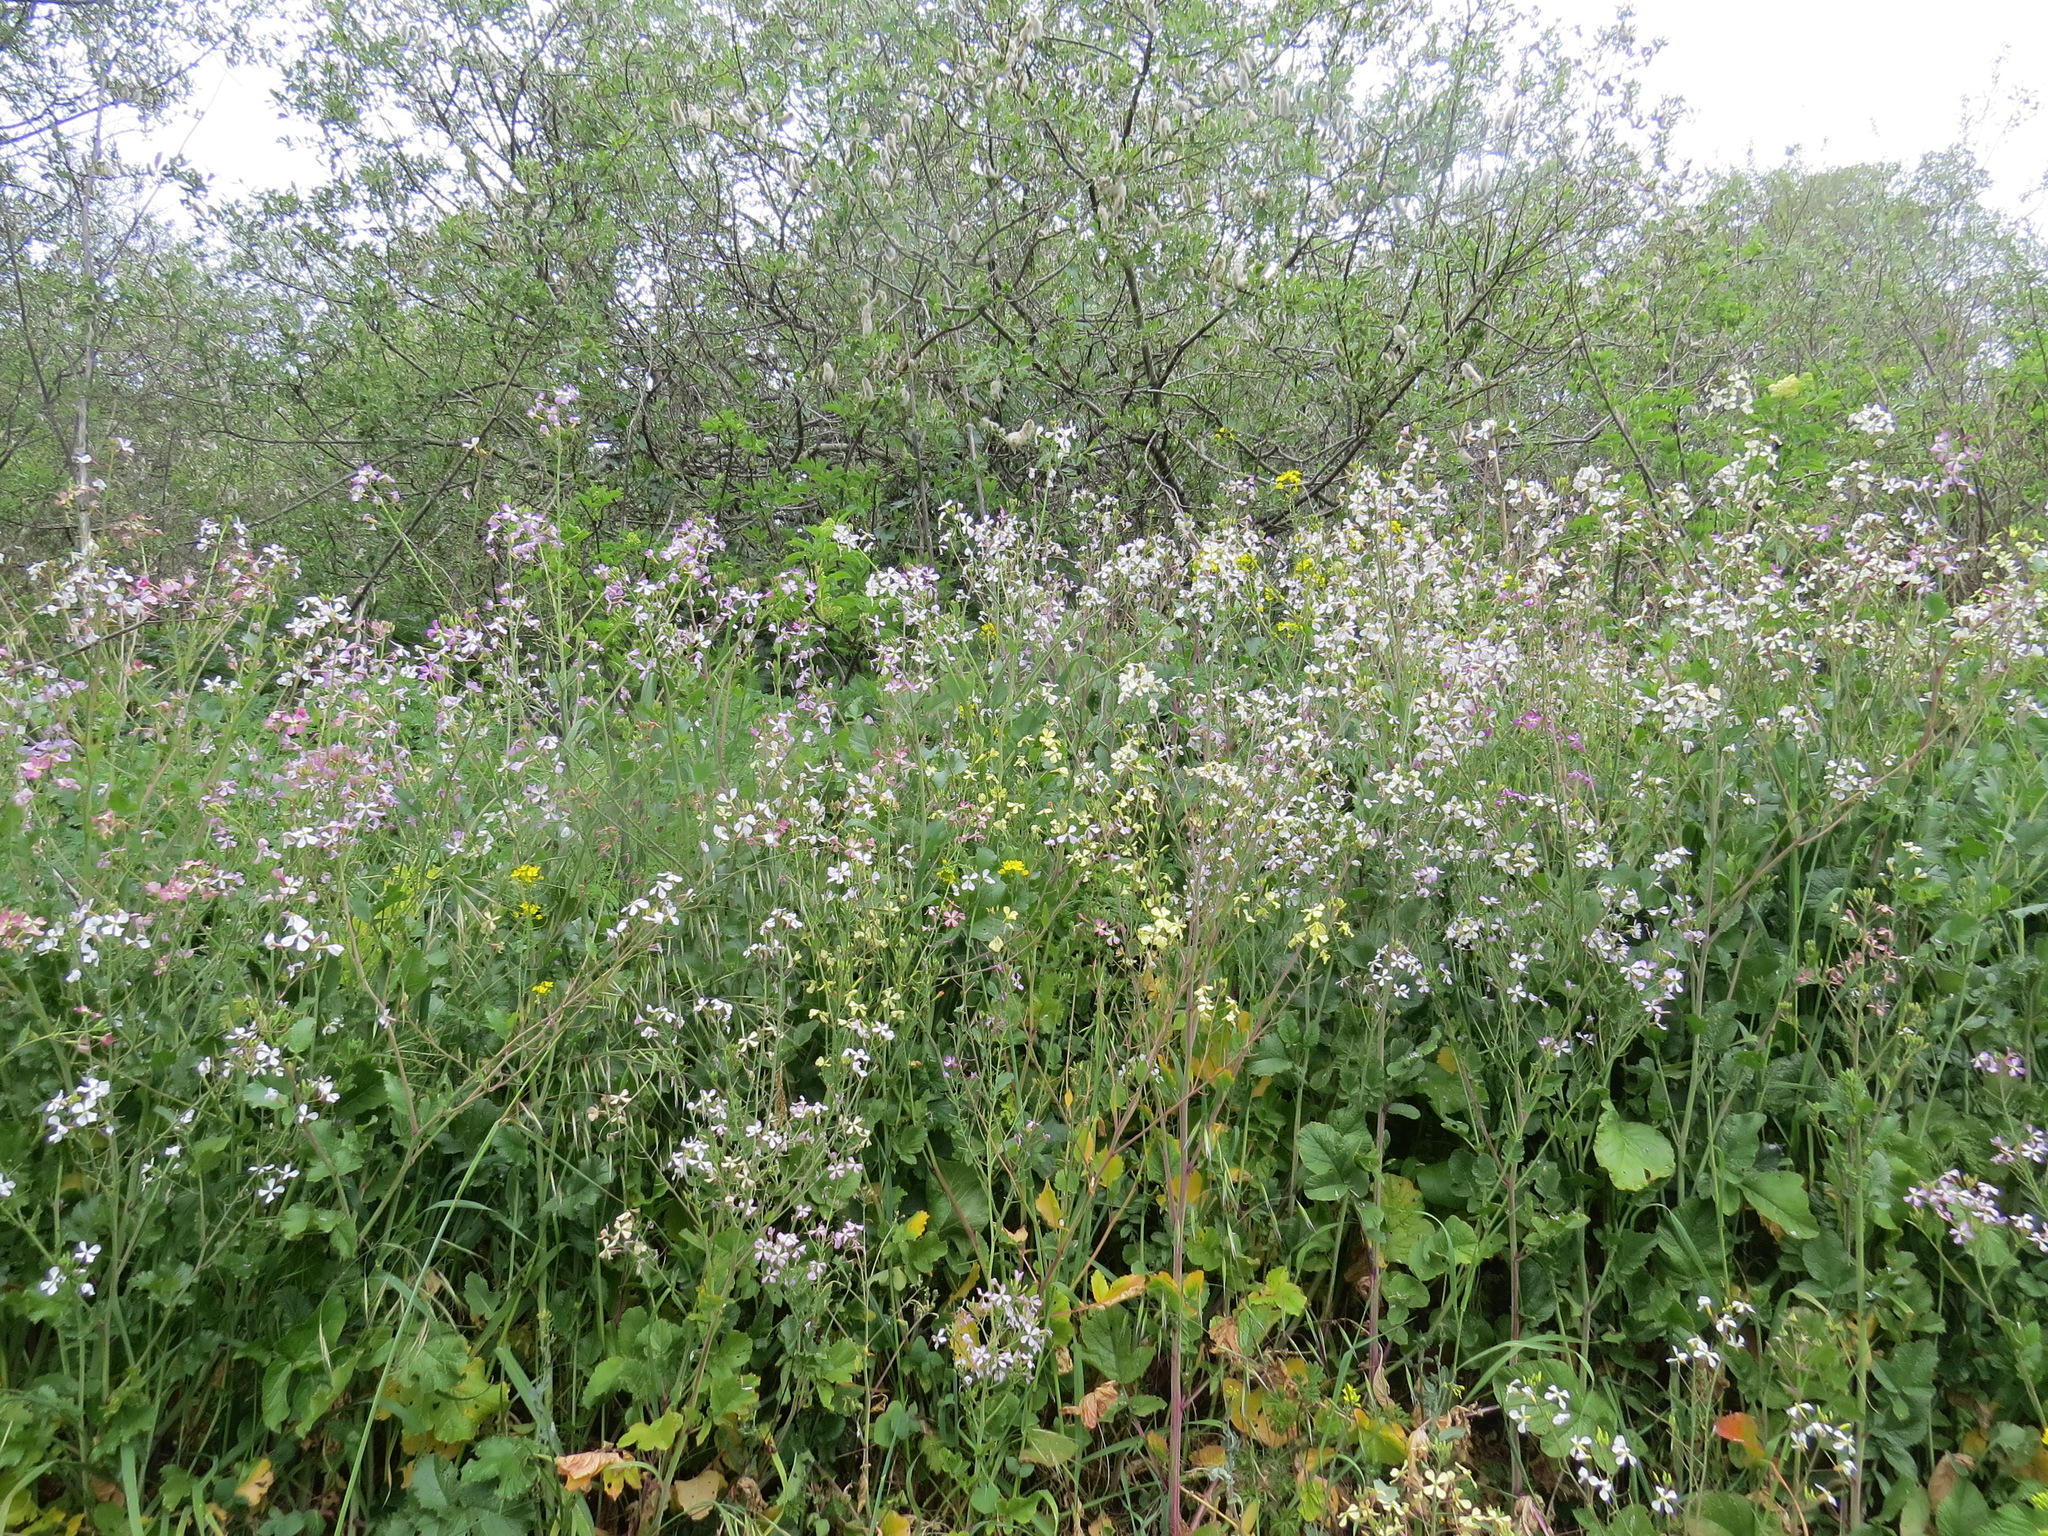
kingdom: Plantae
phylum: Tracheophyta
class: Magnoliopsida
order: Brassicales
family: Brassicaceae
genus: Raphanus
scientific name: Raphanus sativus
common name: Cultivated radish
